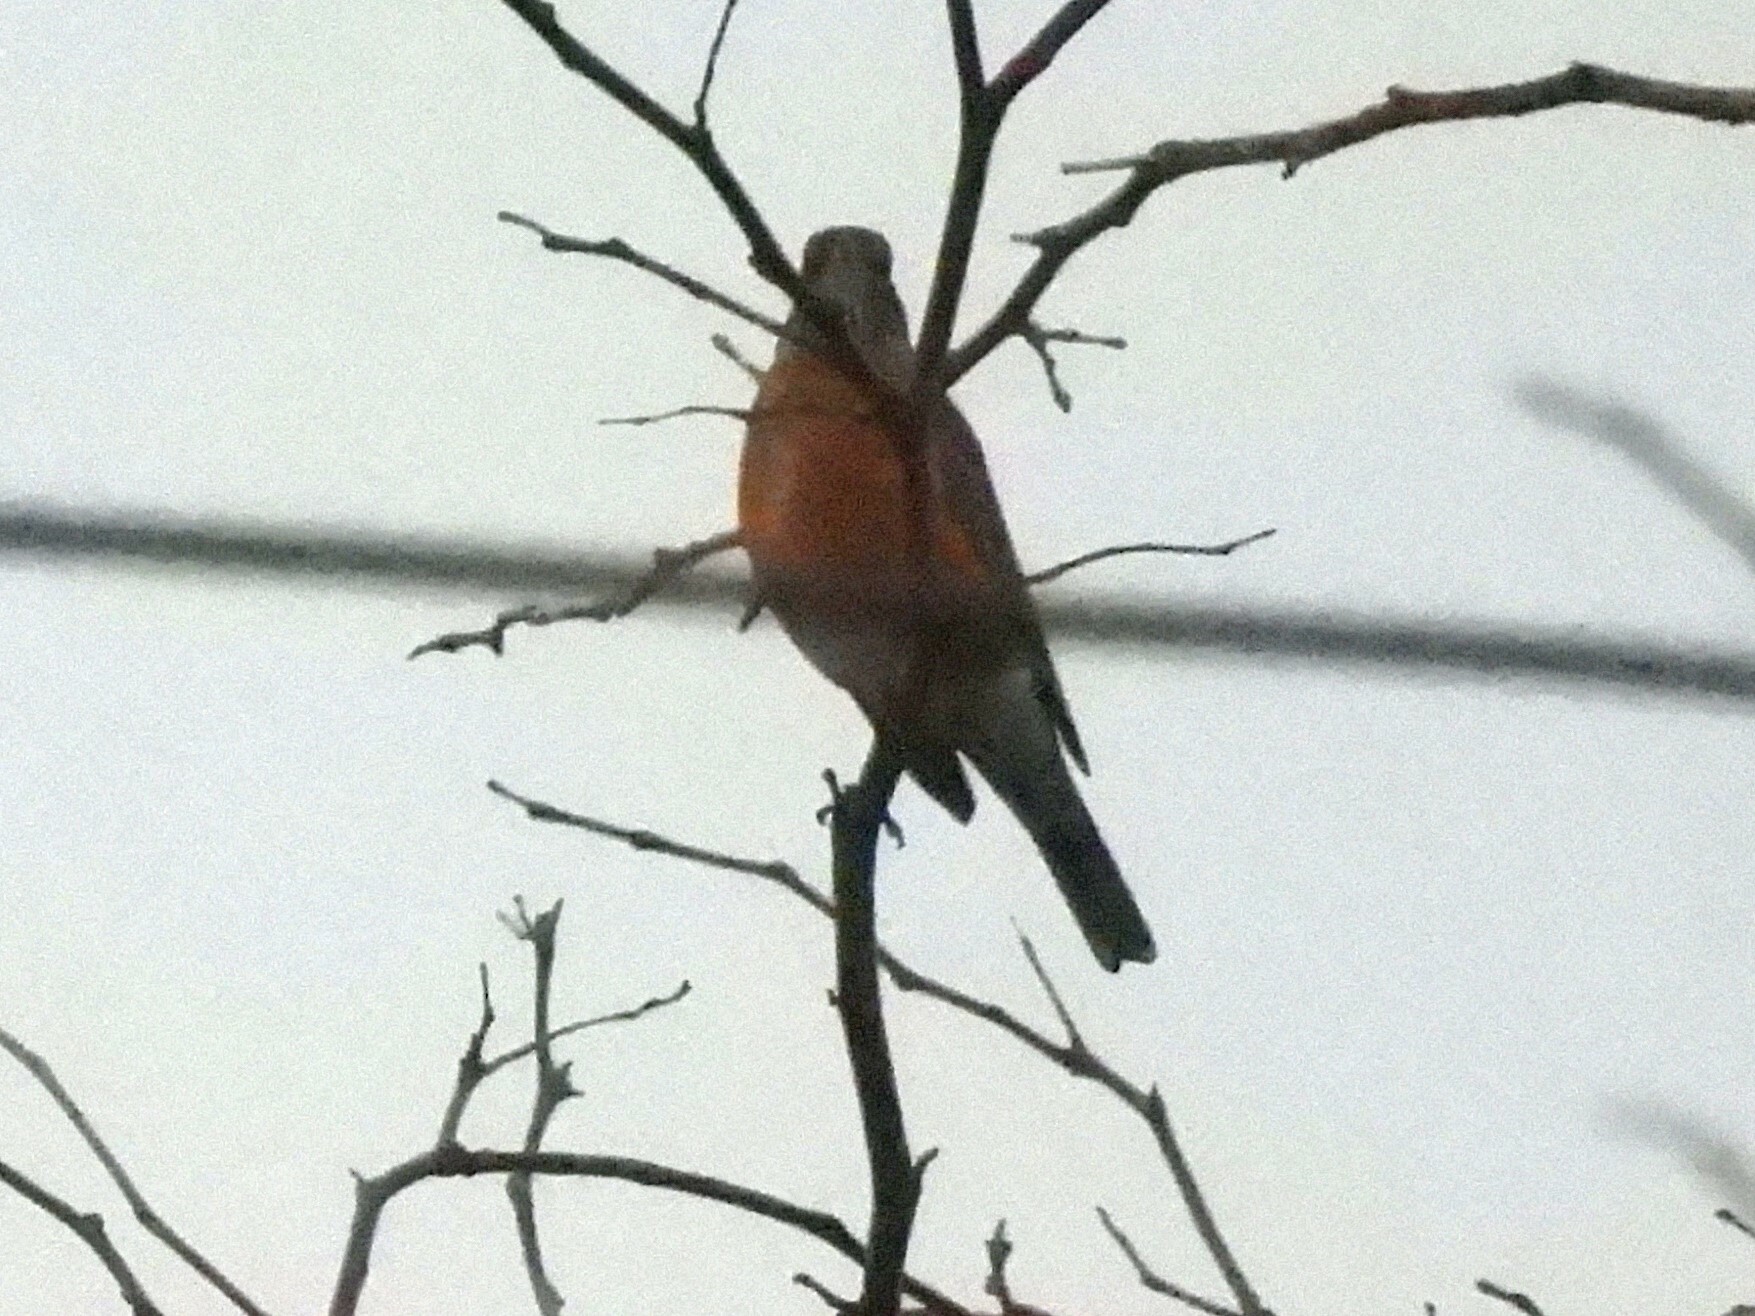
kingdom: Animalia
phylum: Chordata
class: Aves
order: Passeriformes
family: Turdidae
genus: Turdus
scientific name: Turdus migratorius
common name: American robin
